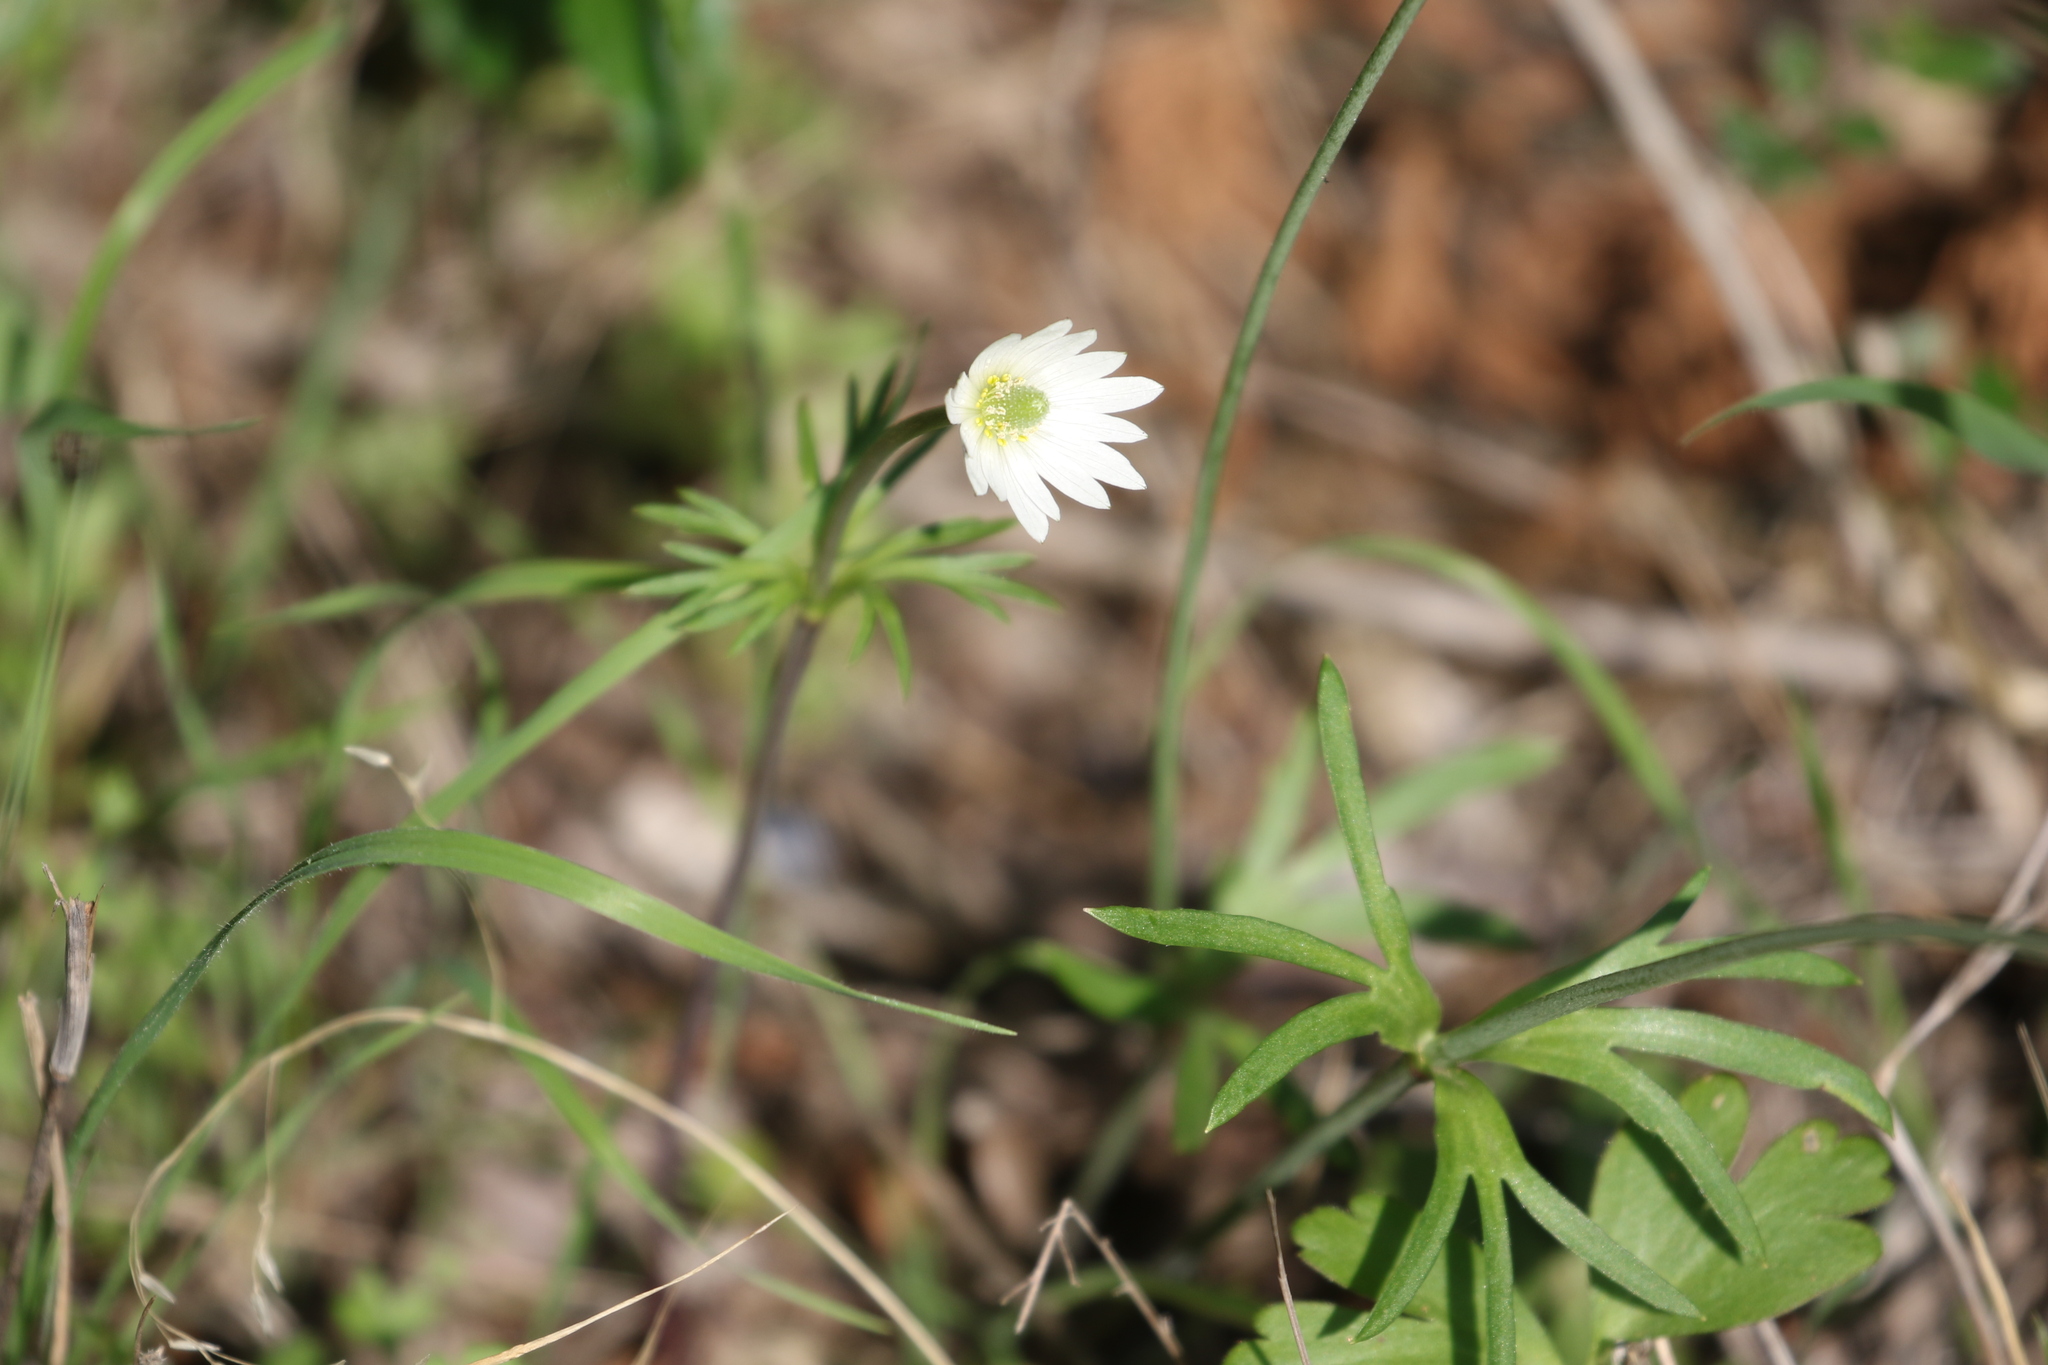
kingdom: Plantae
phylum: Tracheophyta
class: Magnoliopsida
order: Ranunculales
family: Ranunculaceae
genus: Anemone
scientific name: Anemone berlandieri
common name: Ten-petal anemone
